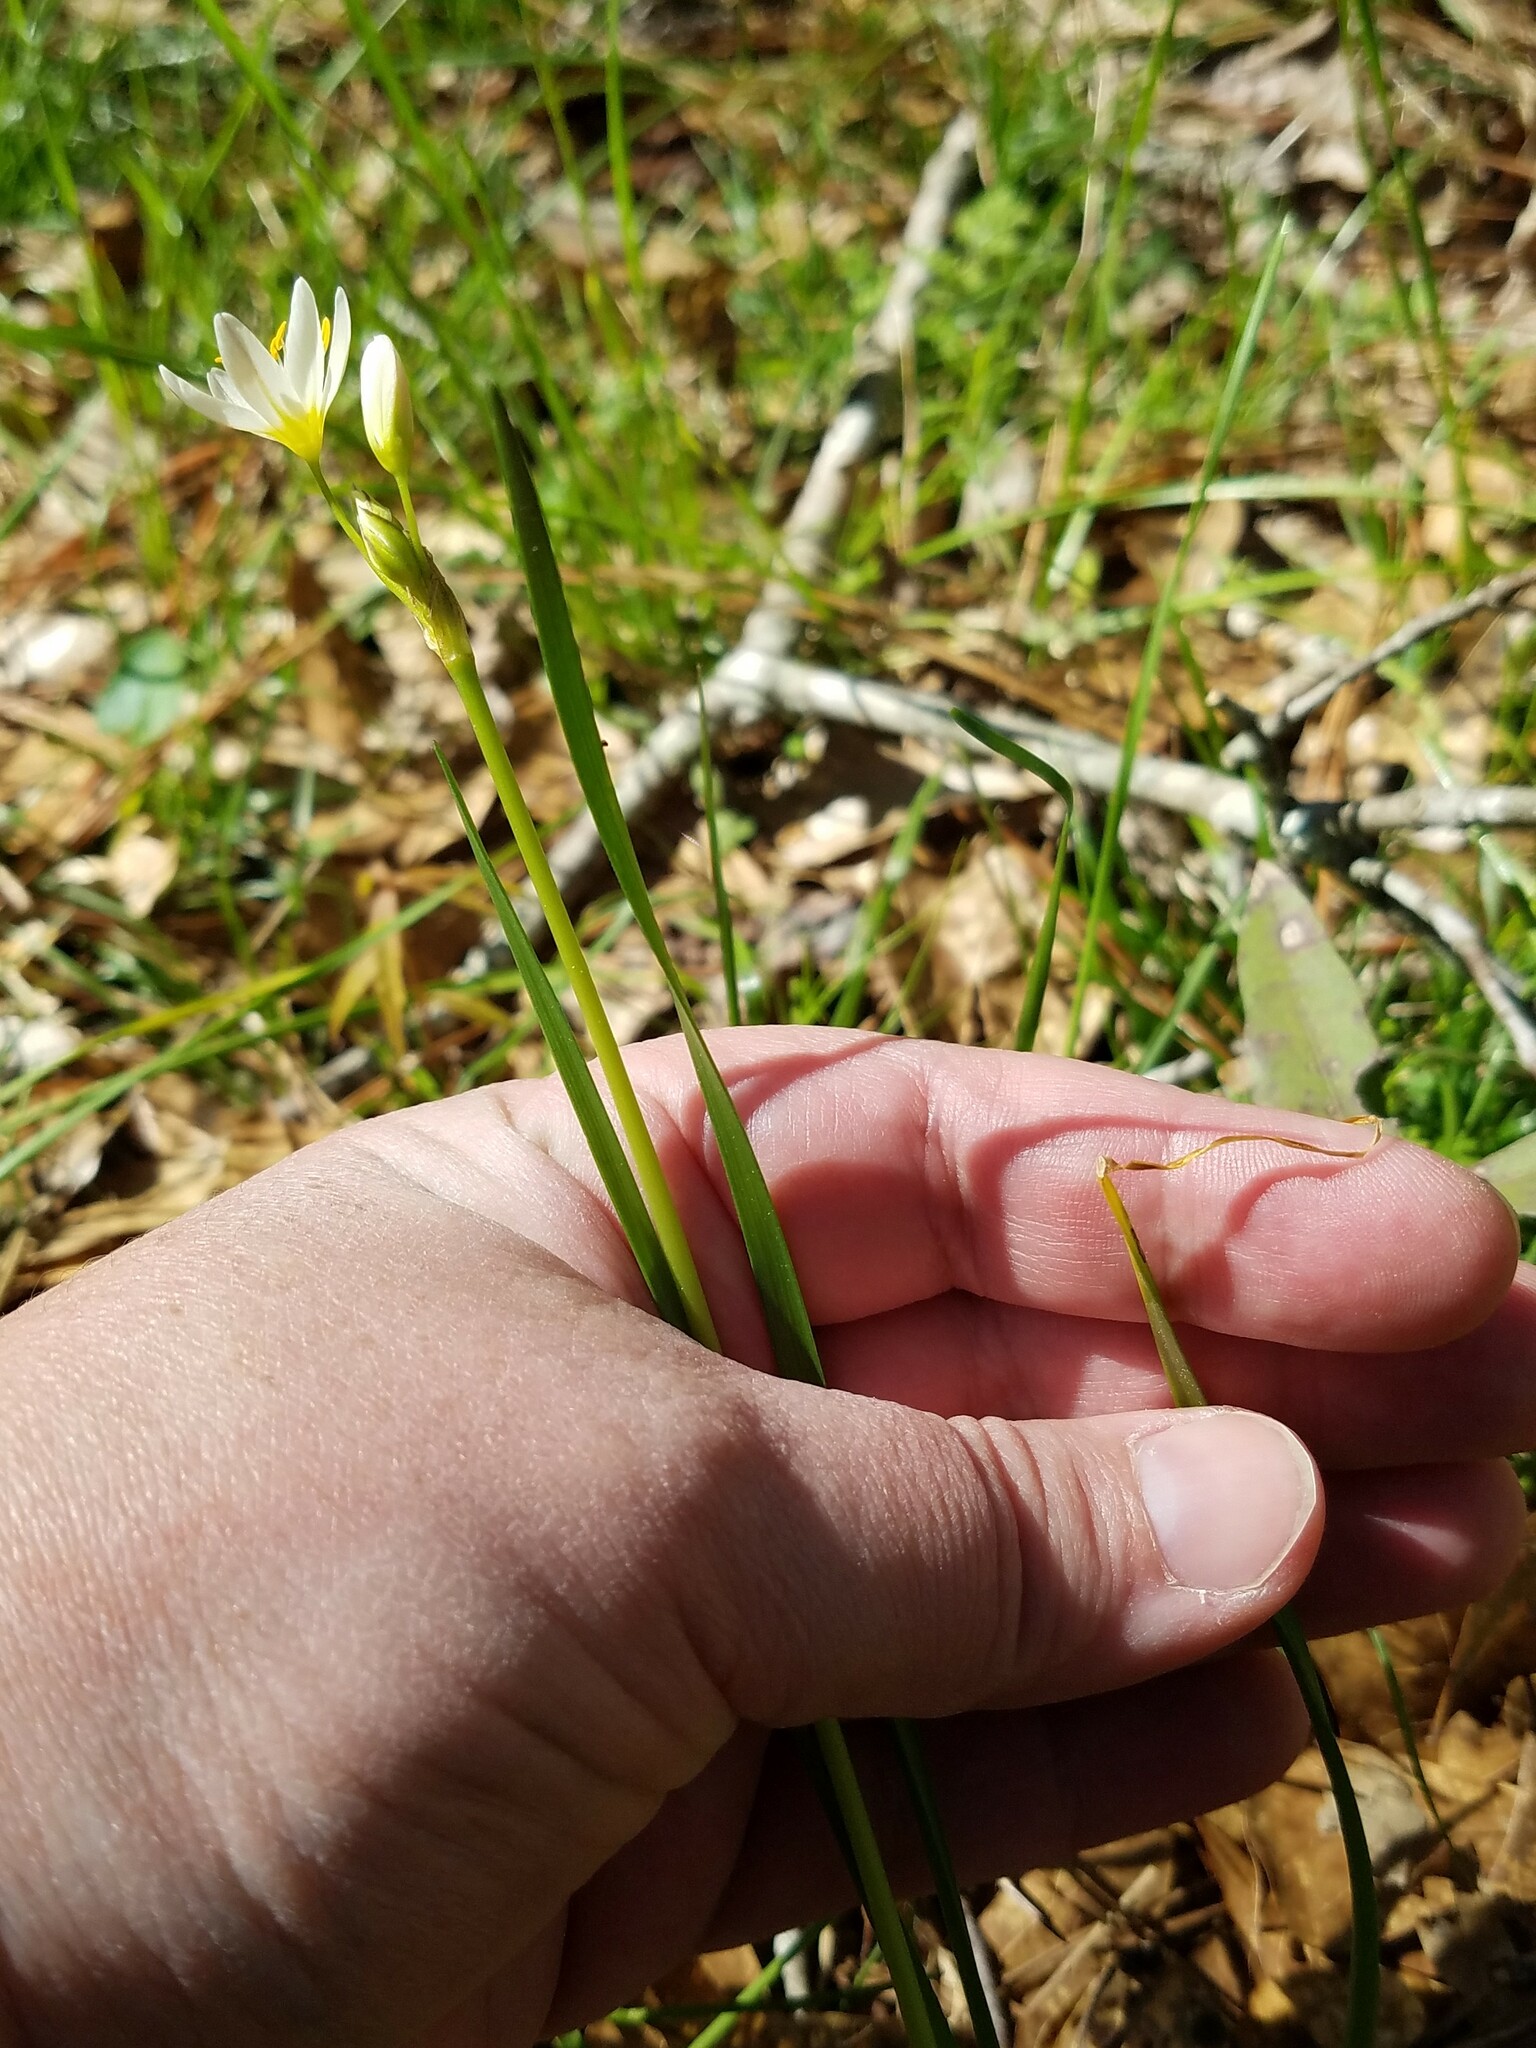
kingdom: Plantae
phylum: Tracheophyta
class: Liliopsida
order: Asparagales
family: Amaryllidaceae
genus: Nothoscordum
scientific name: Nothoscordum bivalve
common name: Crow-poison
